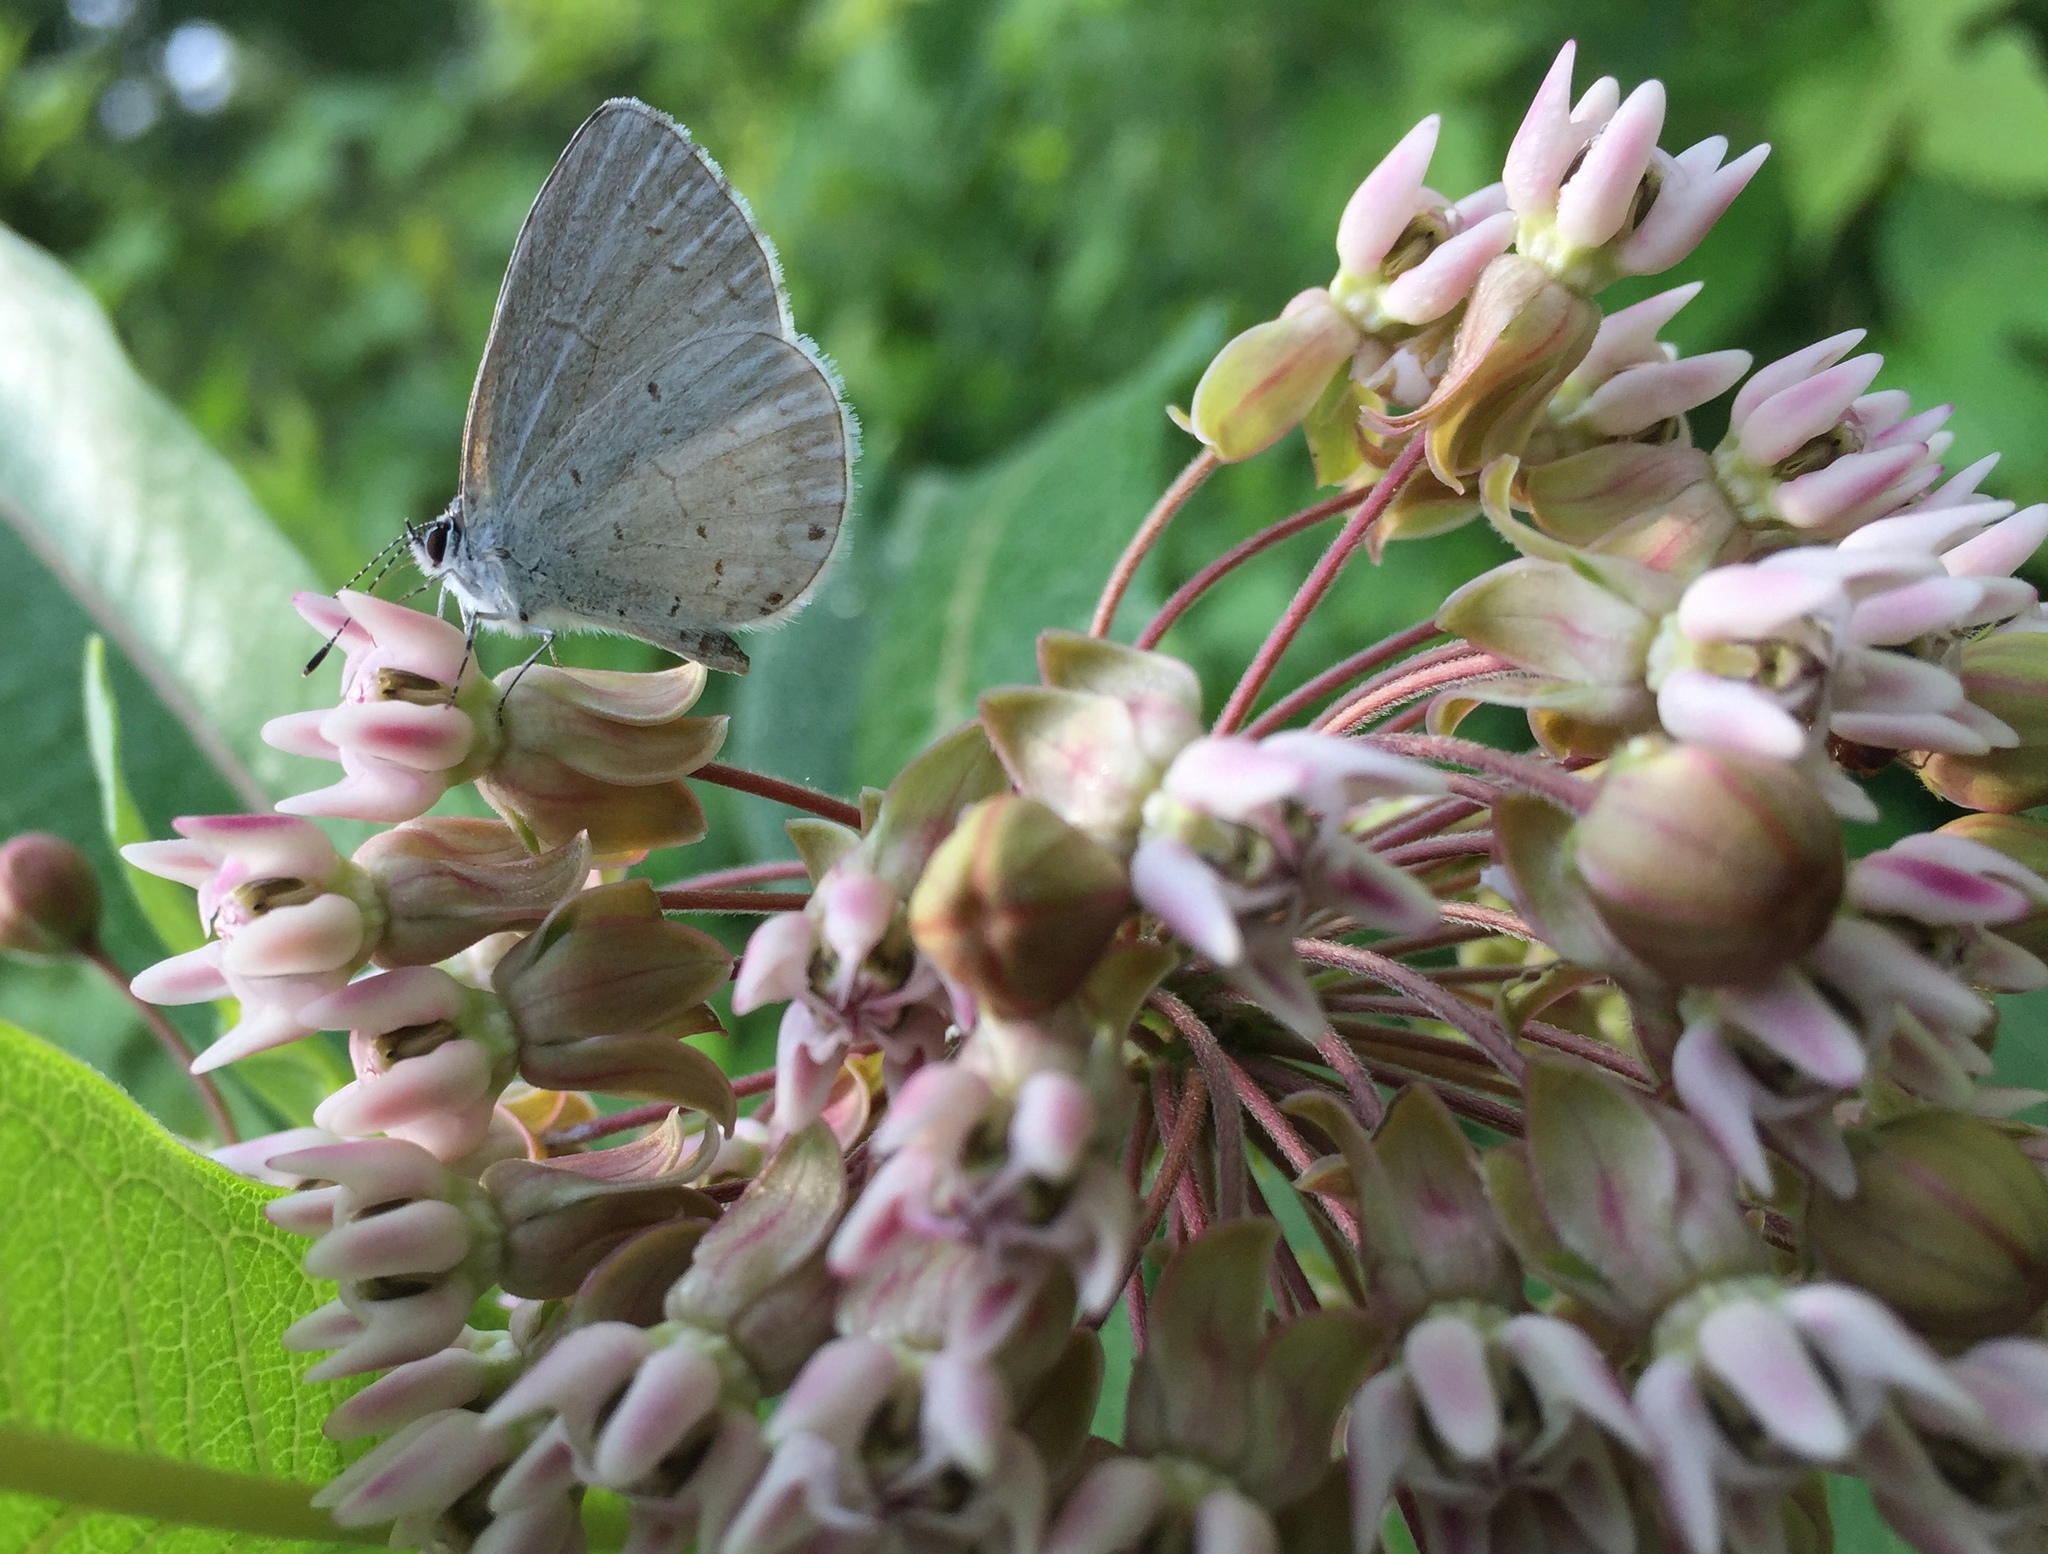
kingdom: Animalia
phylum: Arthropoda
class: Insecta
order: Lepidoptera
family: Lycaenidae
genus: Cyaniris
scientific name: Cyaniris neglecta
